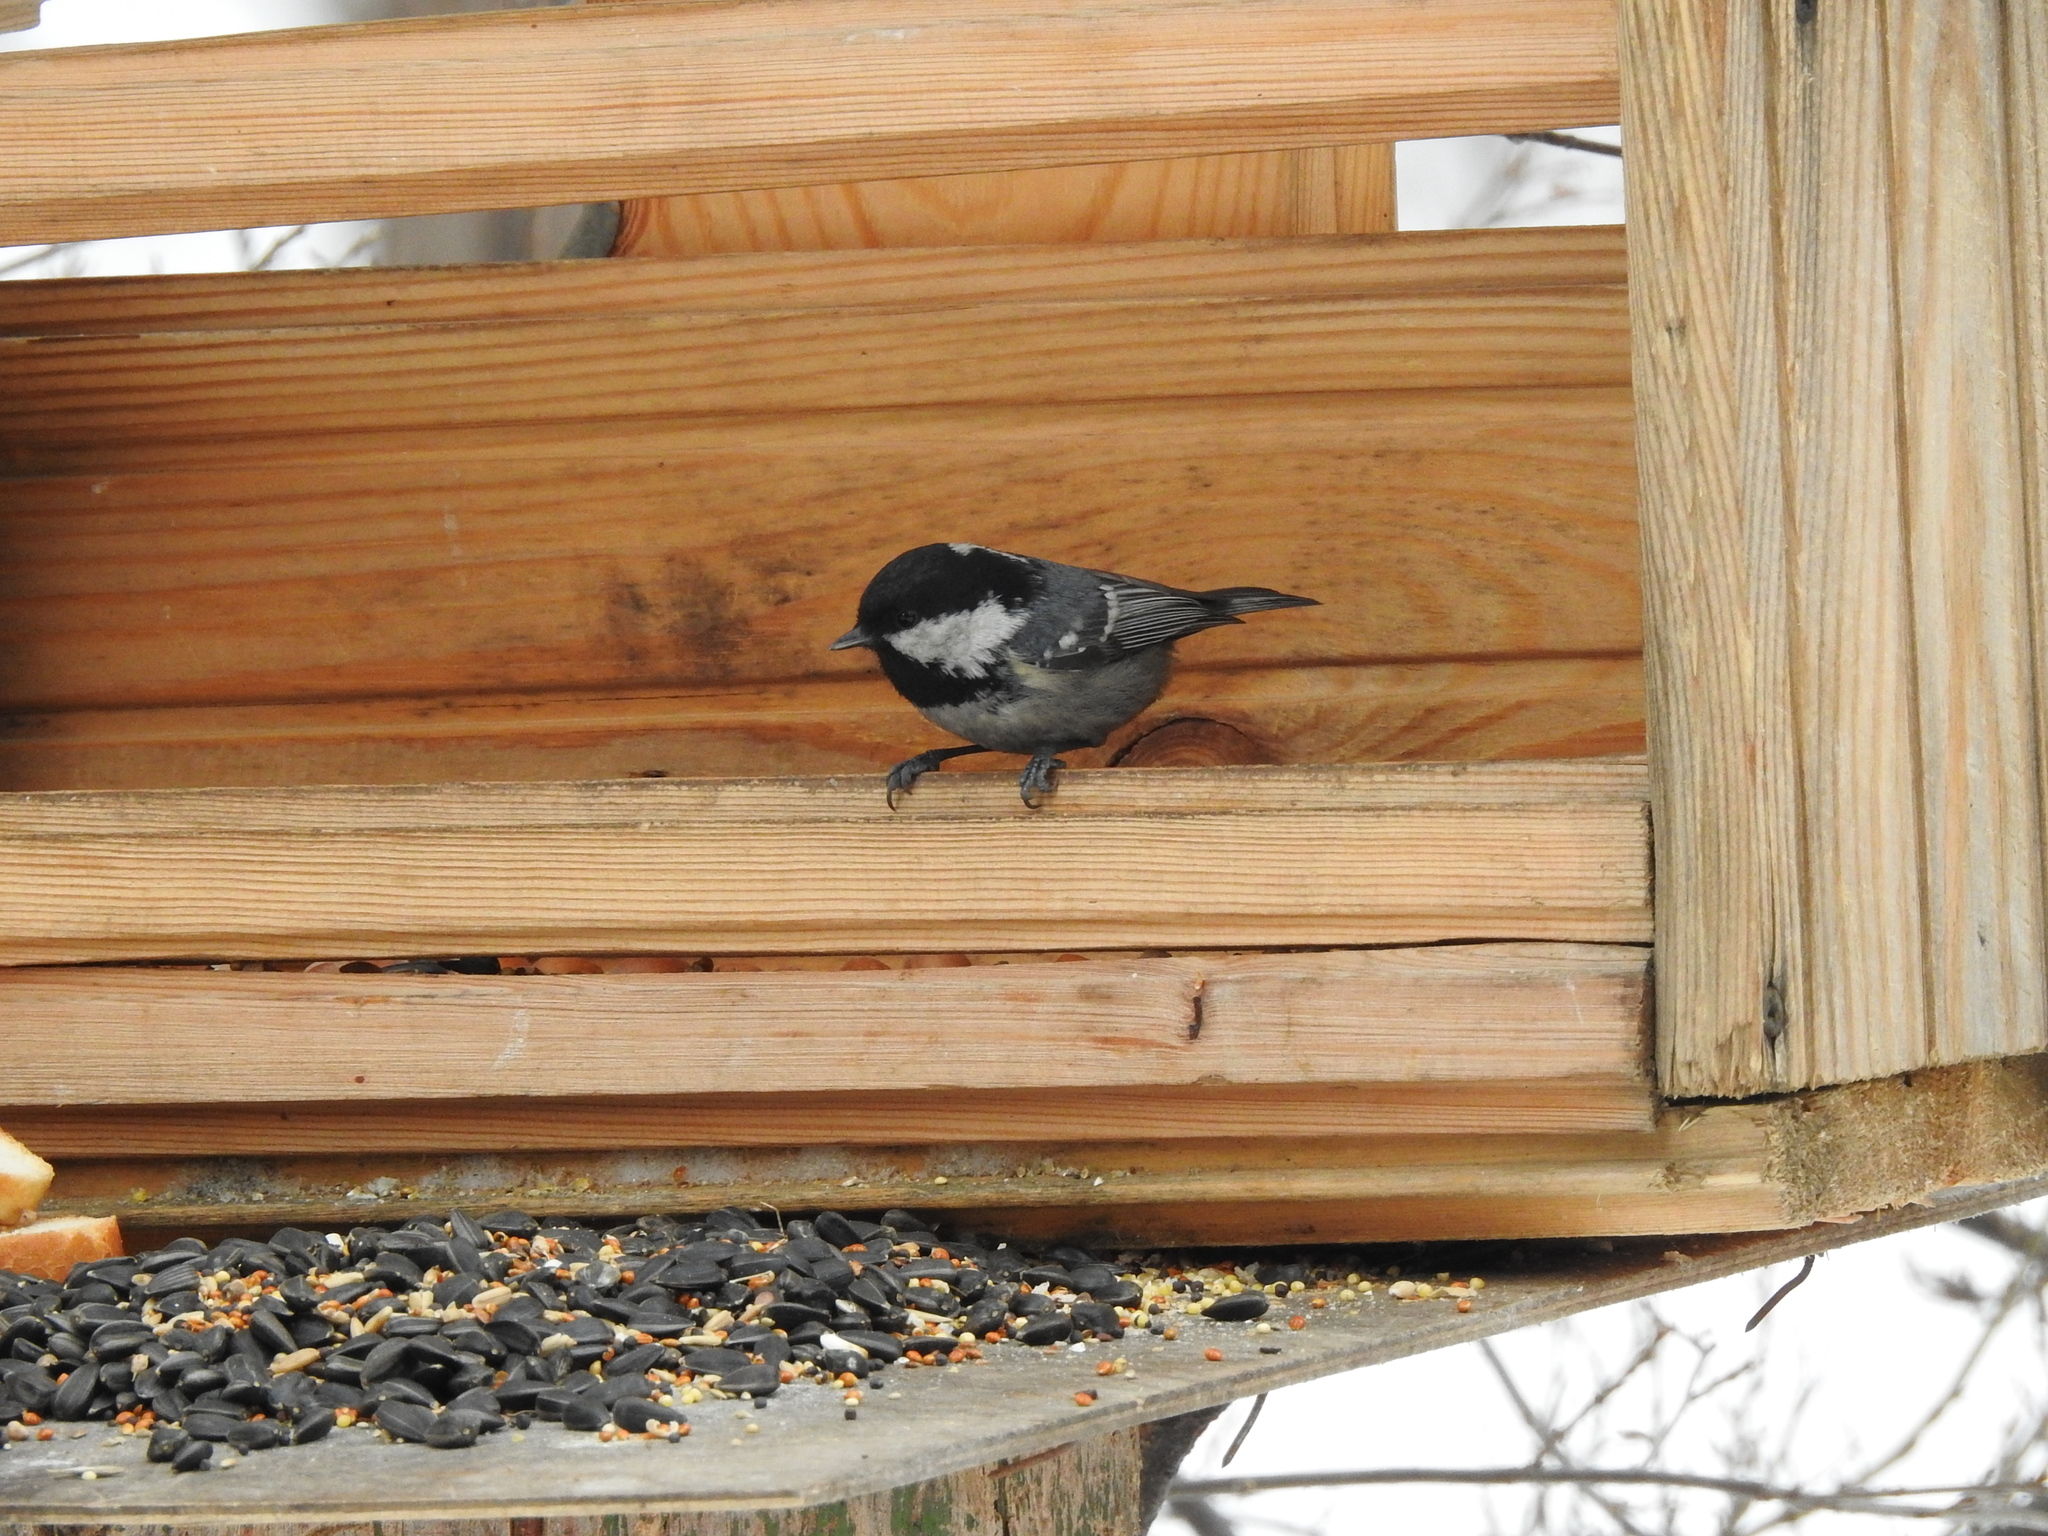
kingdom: Animalia
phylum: Chordata
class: Aves
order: Passeriformes
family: Paridae
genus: Periparus
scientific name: Periparus ater
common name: Coal tit
